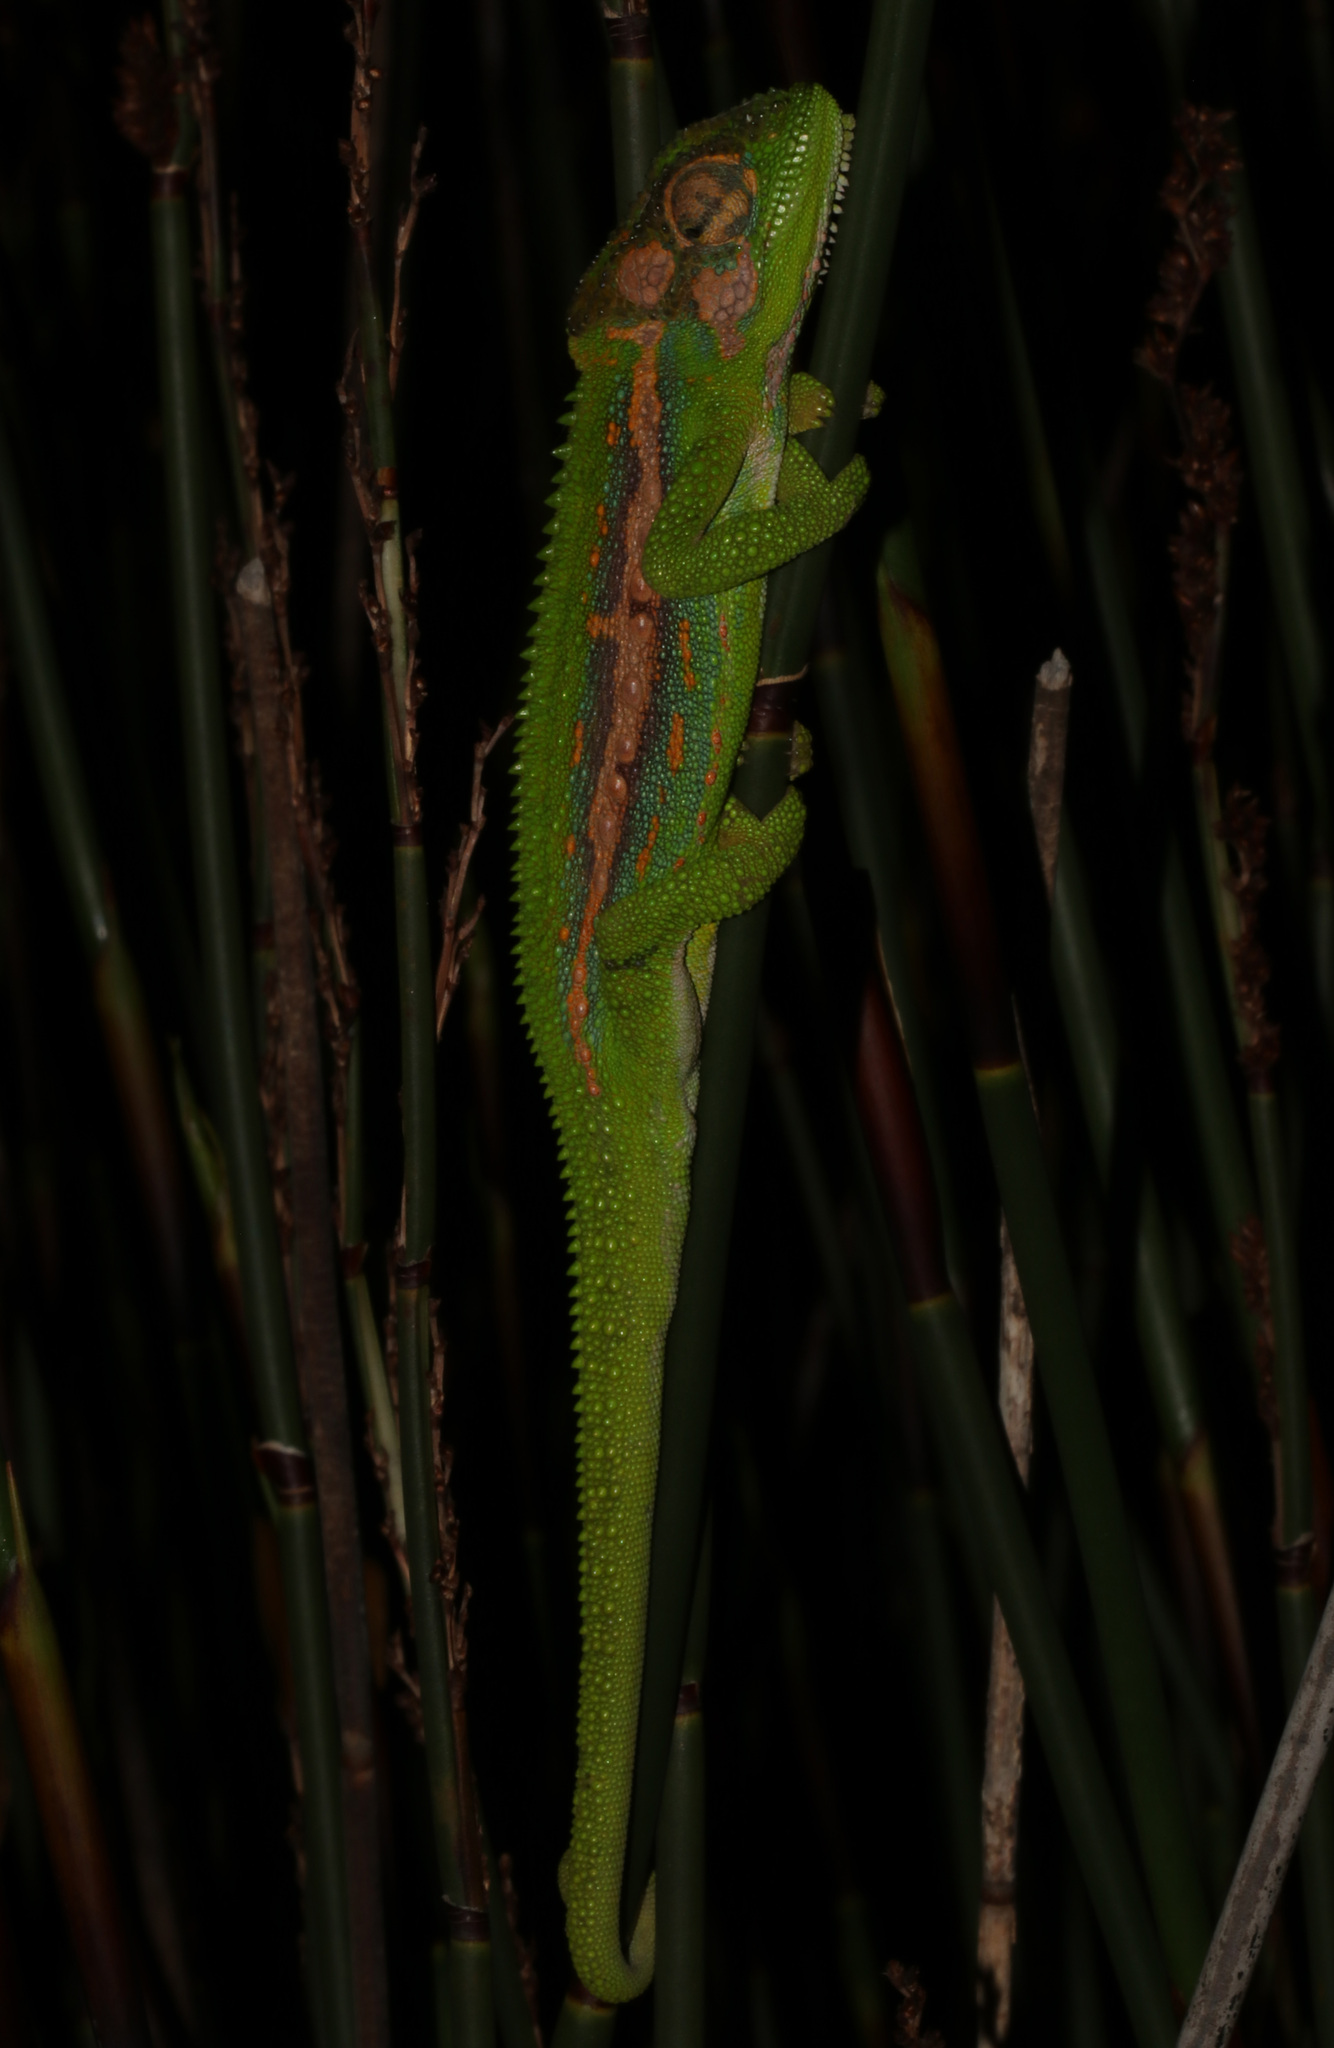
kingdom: Animalia
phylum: Chordata
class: Squamata
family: Chamaeleonidae
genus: Bradypodion
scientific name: Bradypodion pumilum
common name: Cape dwarf chameleon
